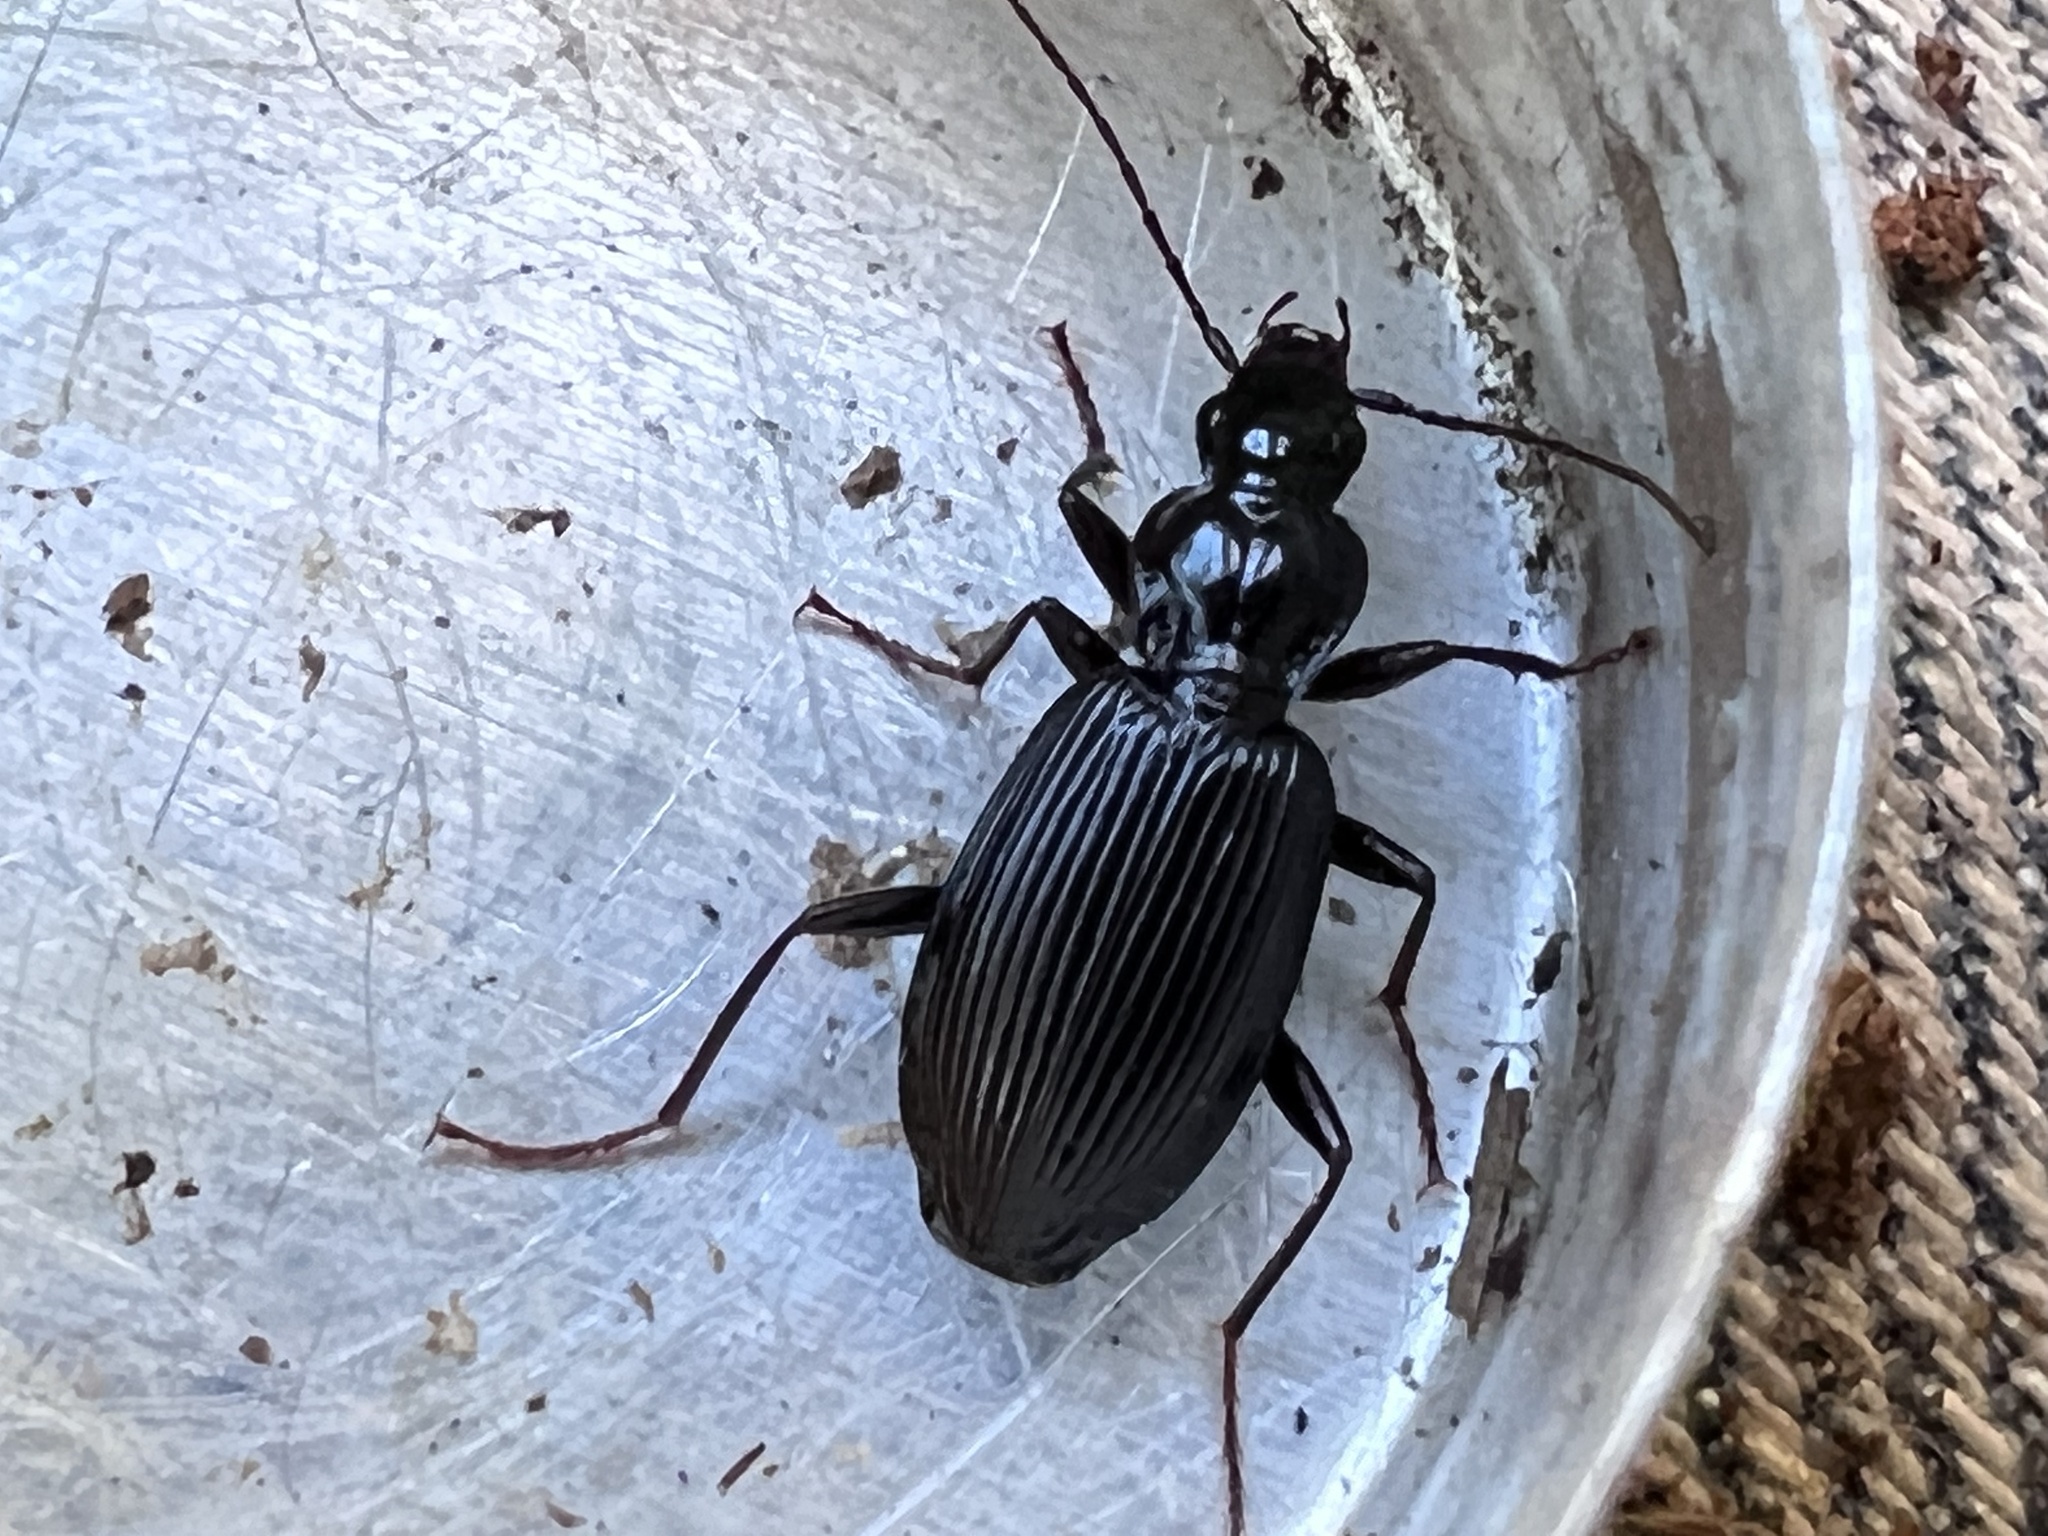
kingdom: Animalia
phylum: Arthropoda
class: Insecta
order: Coleoptera
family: Carabidae
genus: Platynus
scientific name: Platynus decentis
